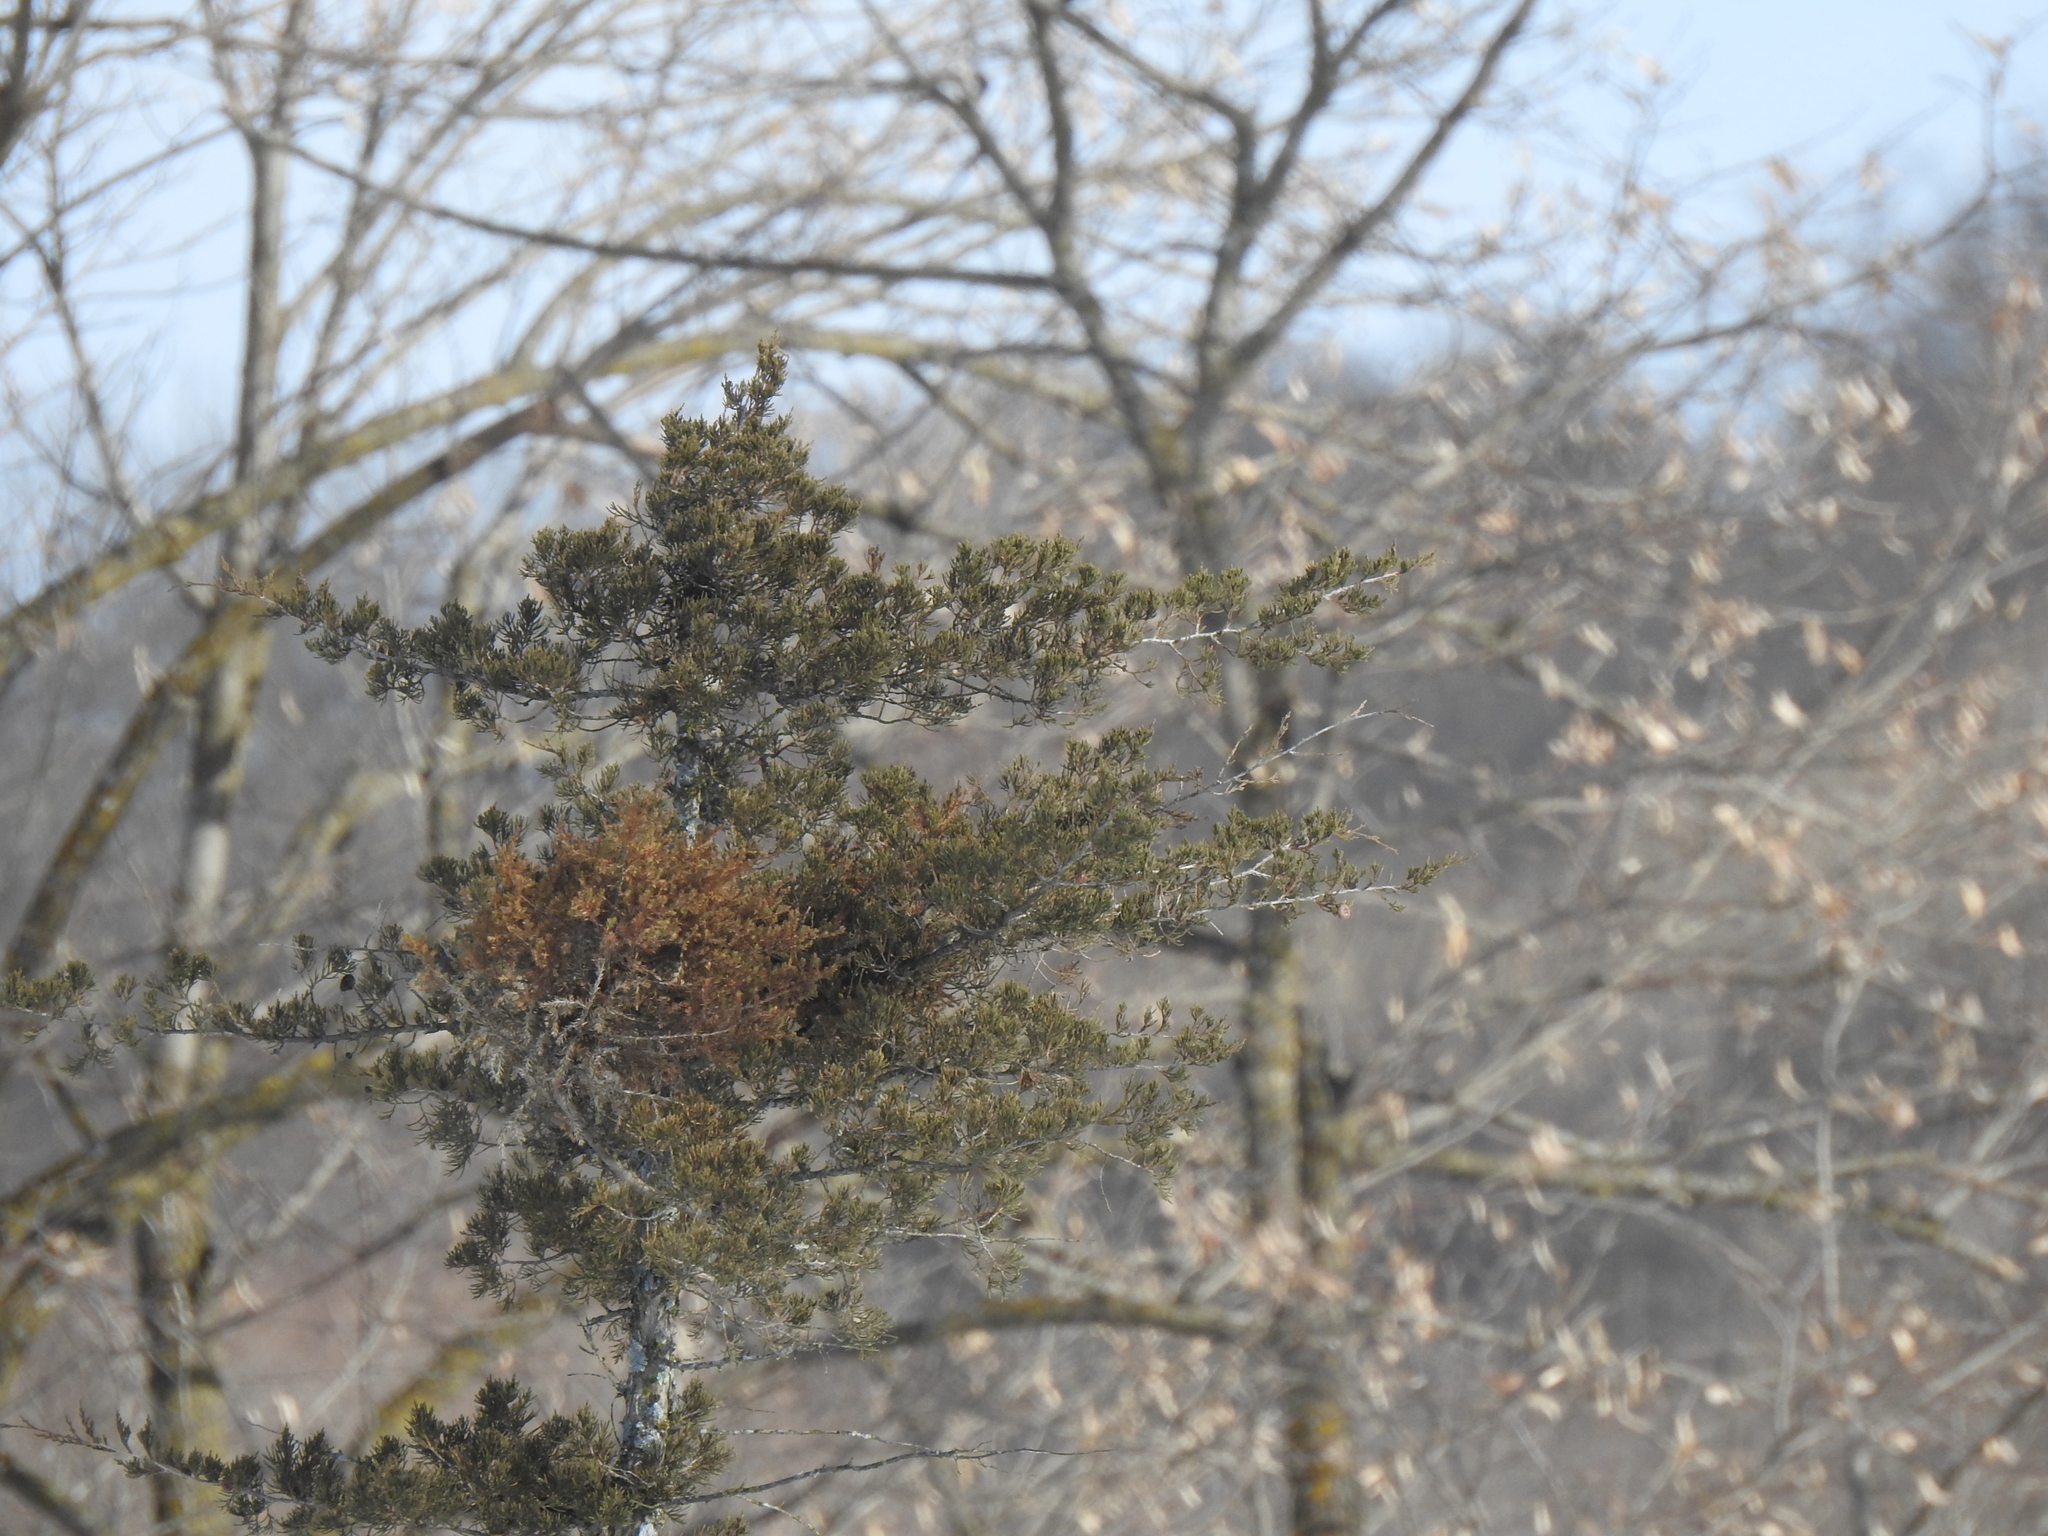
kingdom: Plantae
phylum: Tracheophyta
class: Pinopsida
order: Pinales
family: Cupressaceae
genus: Juniperus
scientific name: Juniperus virginiana
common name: Red juniper
